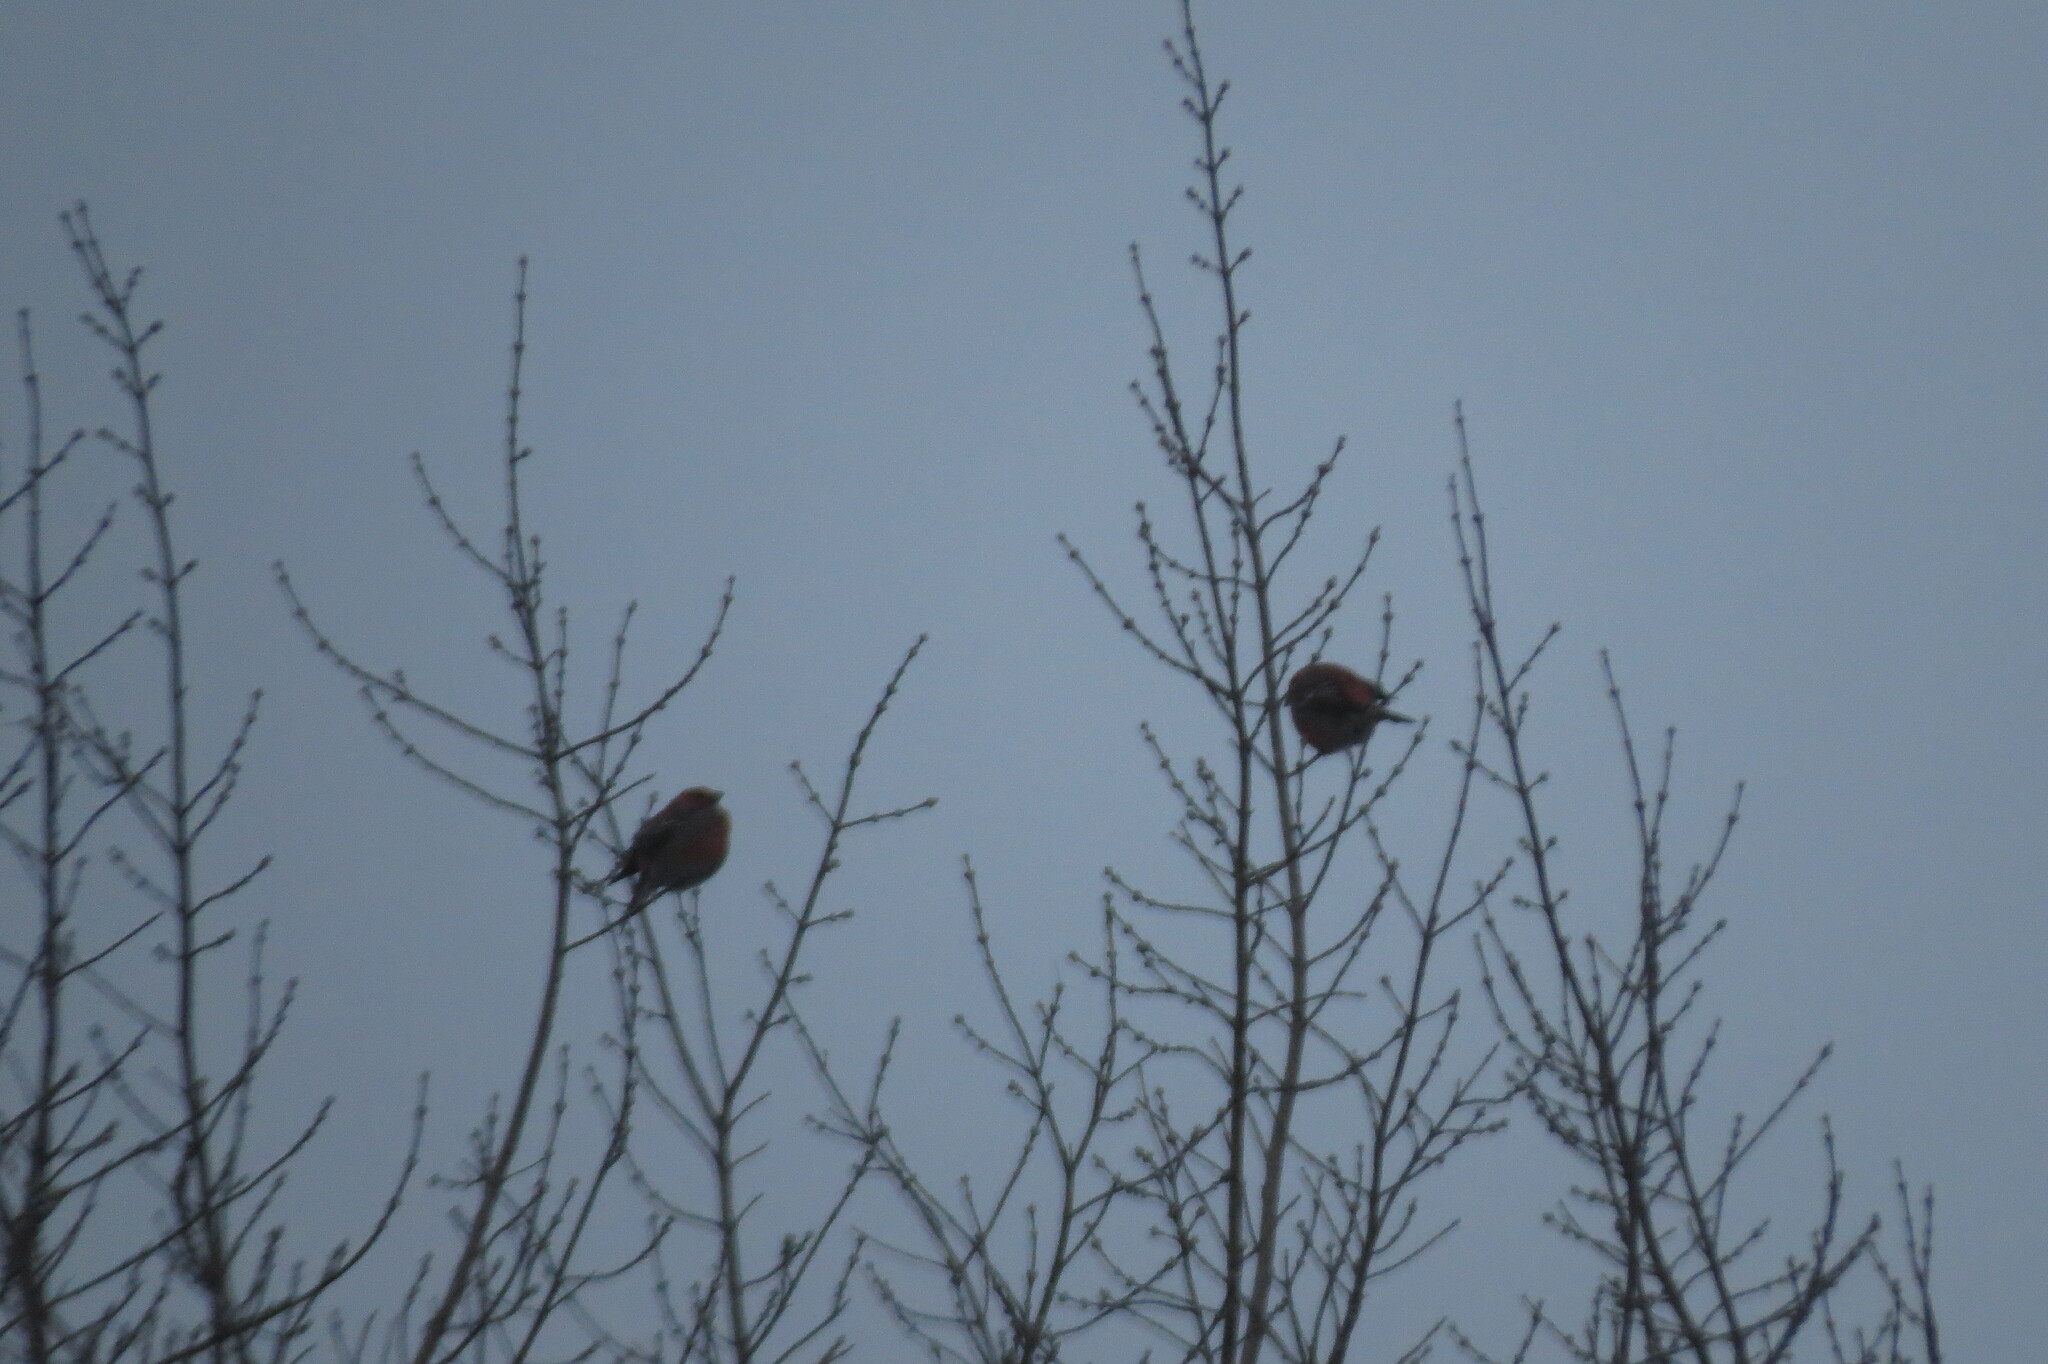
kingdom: Animalia
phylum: Chordata
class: Aves
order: Passeriformes
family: Fringillidae
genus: Pinicola
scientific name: Pinicola enucleator
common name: Pine grosbeak
